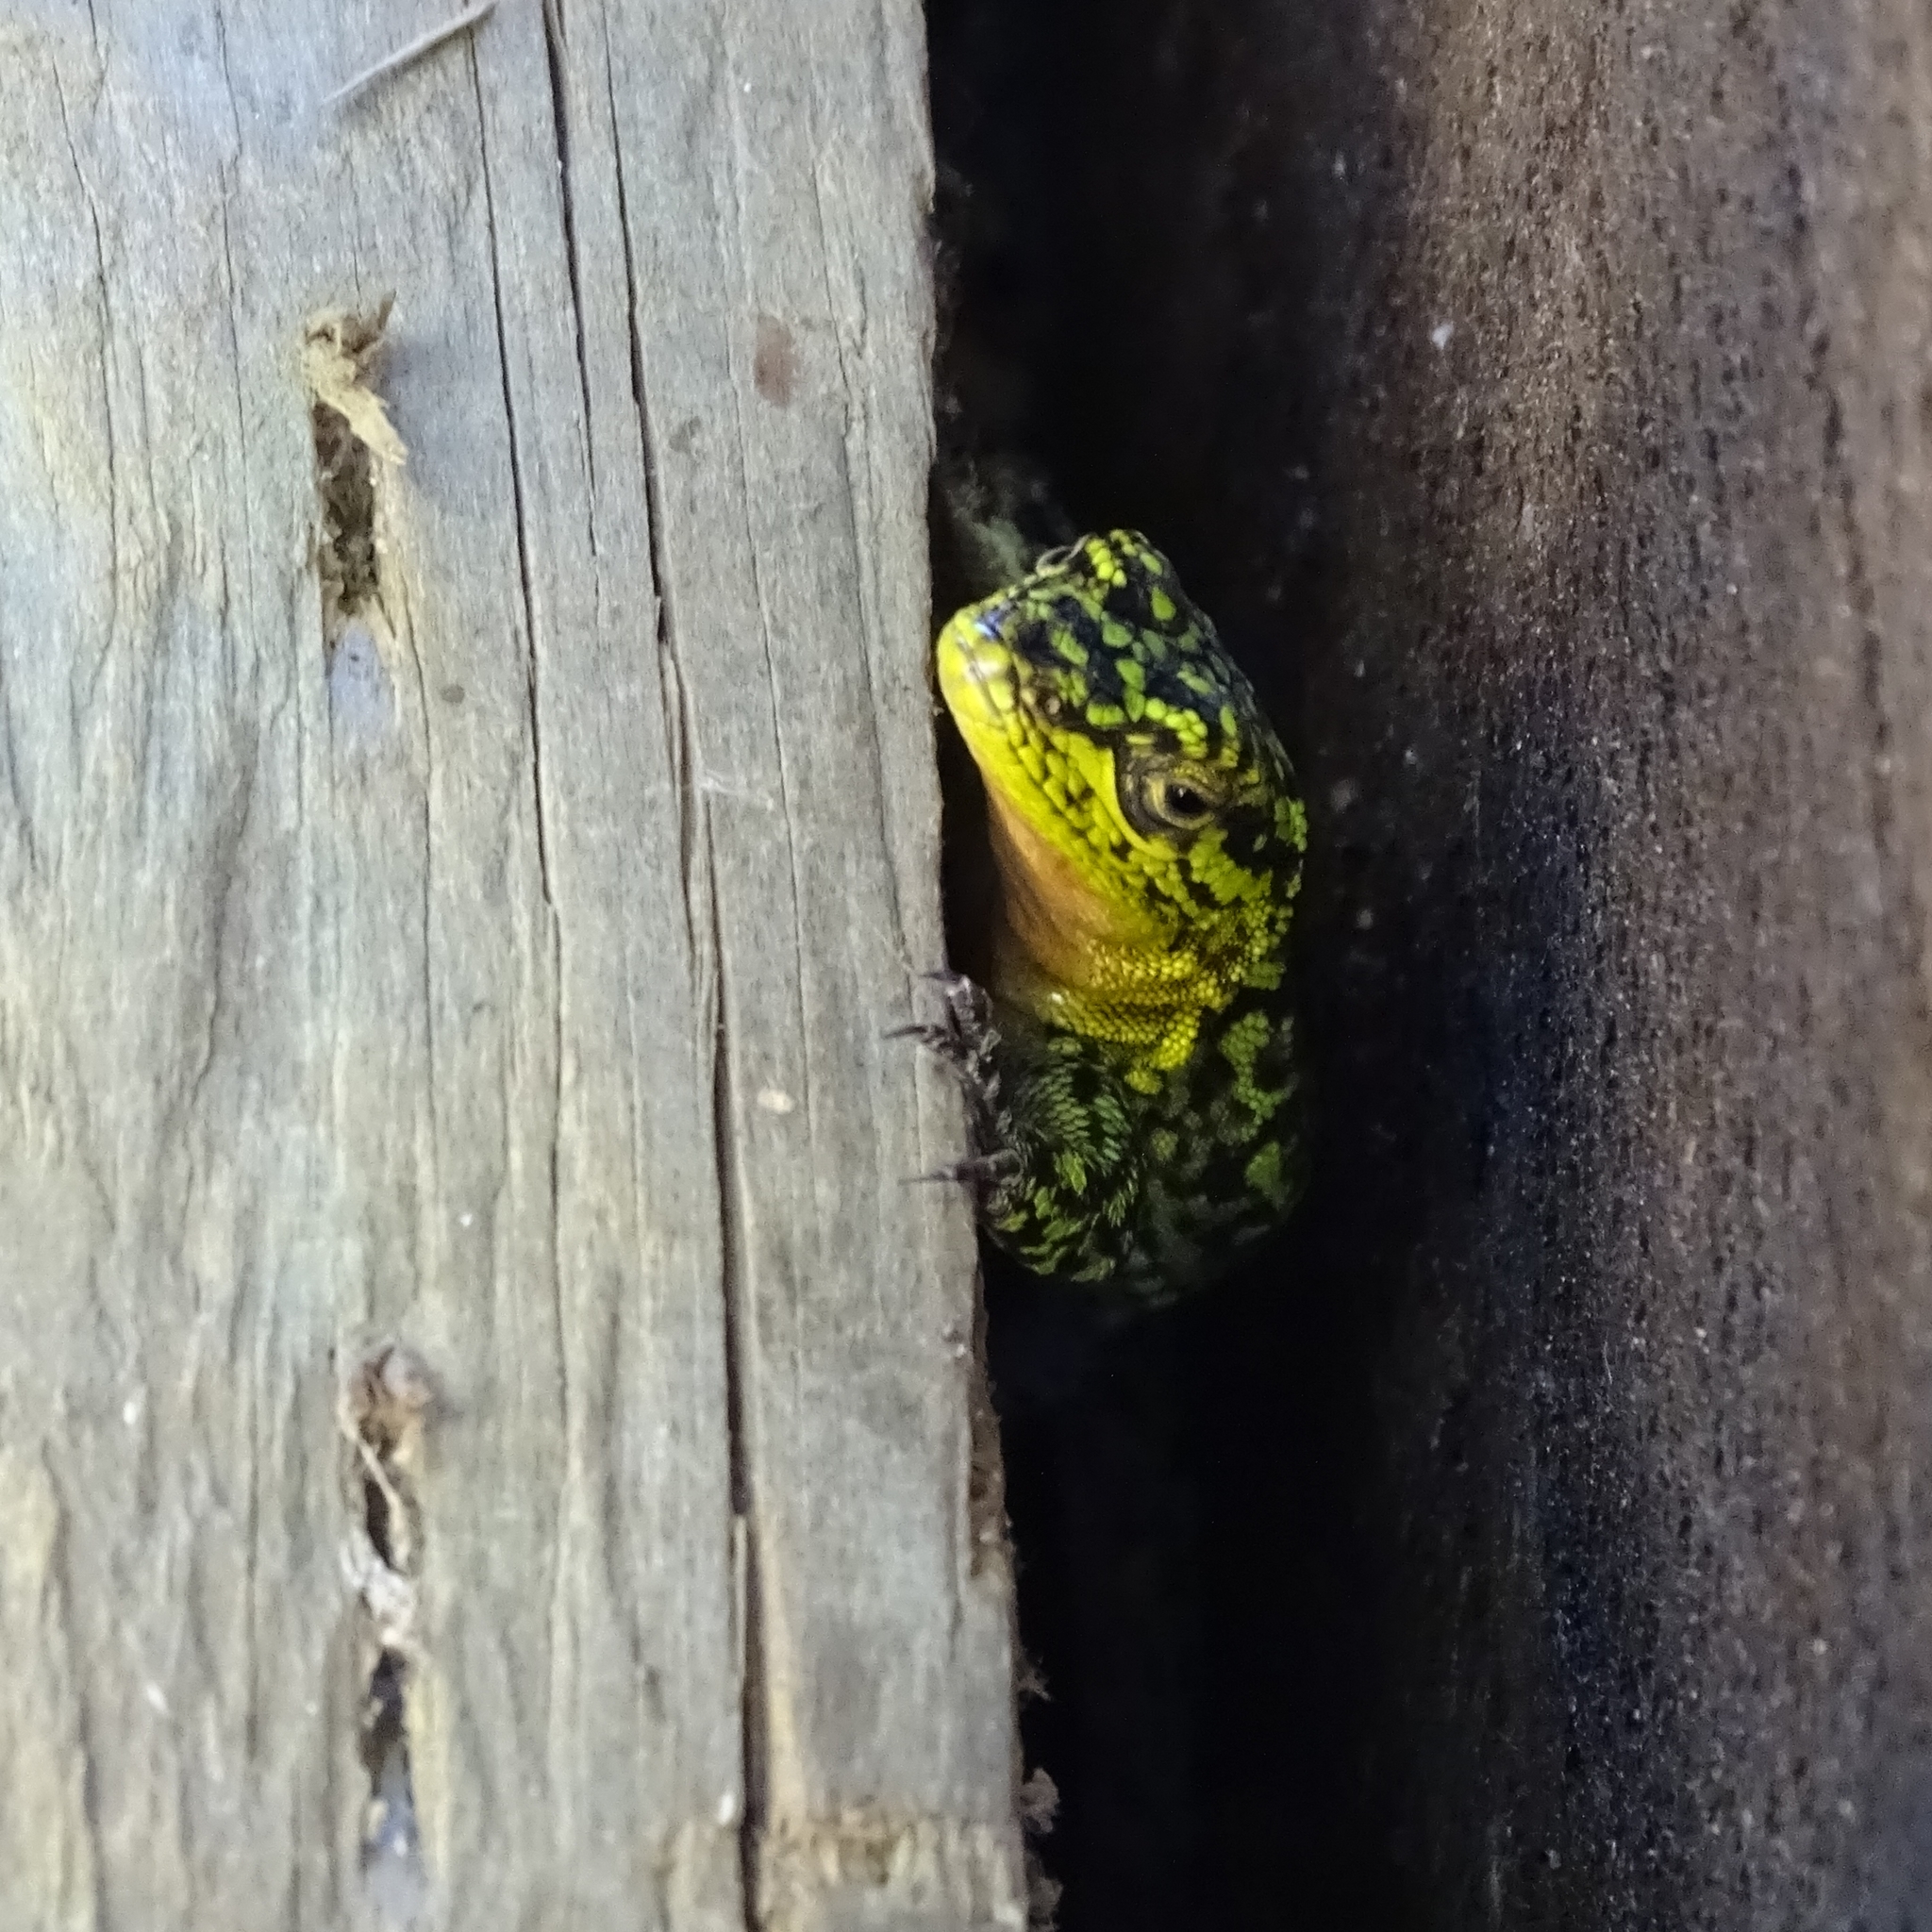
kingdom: Animalia
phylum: Chordata
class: Squamata
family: Liolaemidae
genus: Liolaemus
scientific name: Liolaemus tenuis
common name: Thin tree iguana
